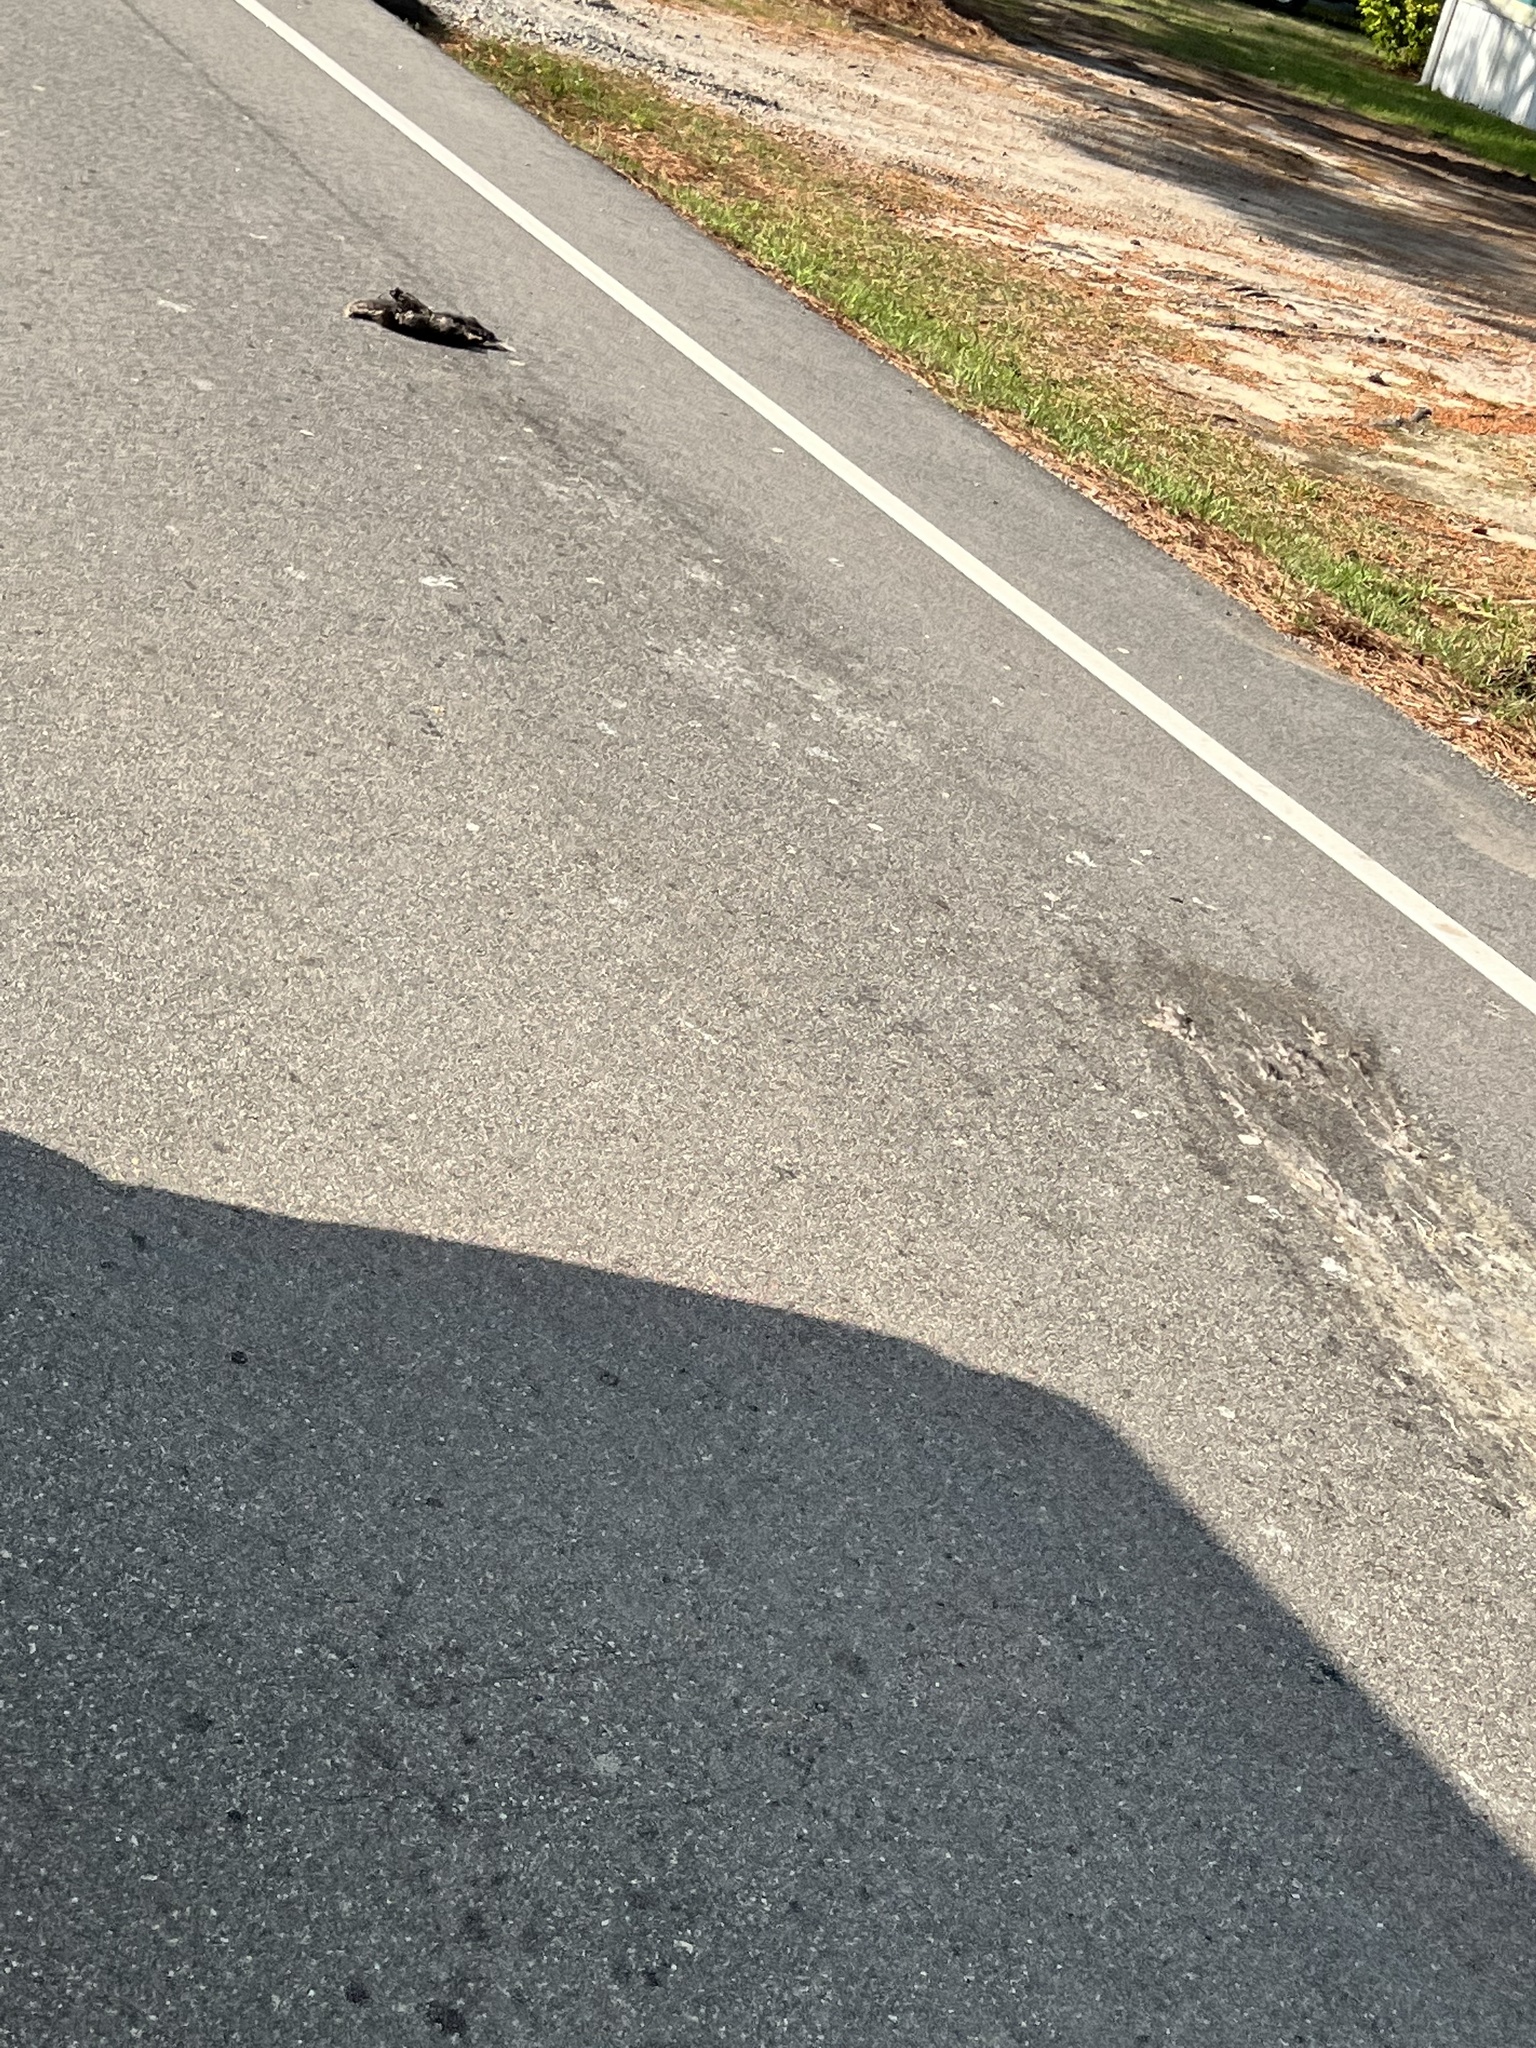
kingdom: Animalia
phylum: Chordata
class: Mammalia
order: Didelphimorphia
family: Didelphidae
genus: Didelphis
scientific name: Didelphis virginiana
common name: Virginia opossum
